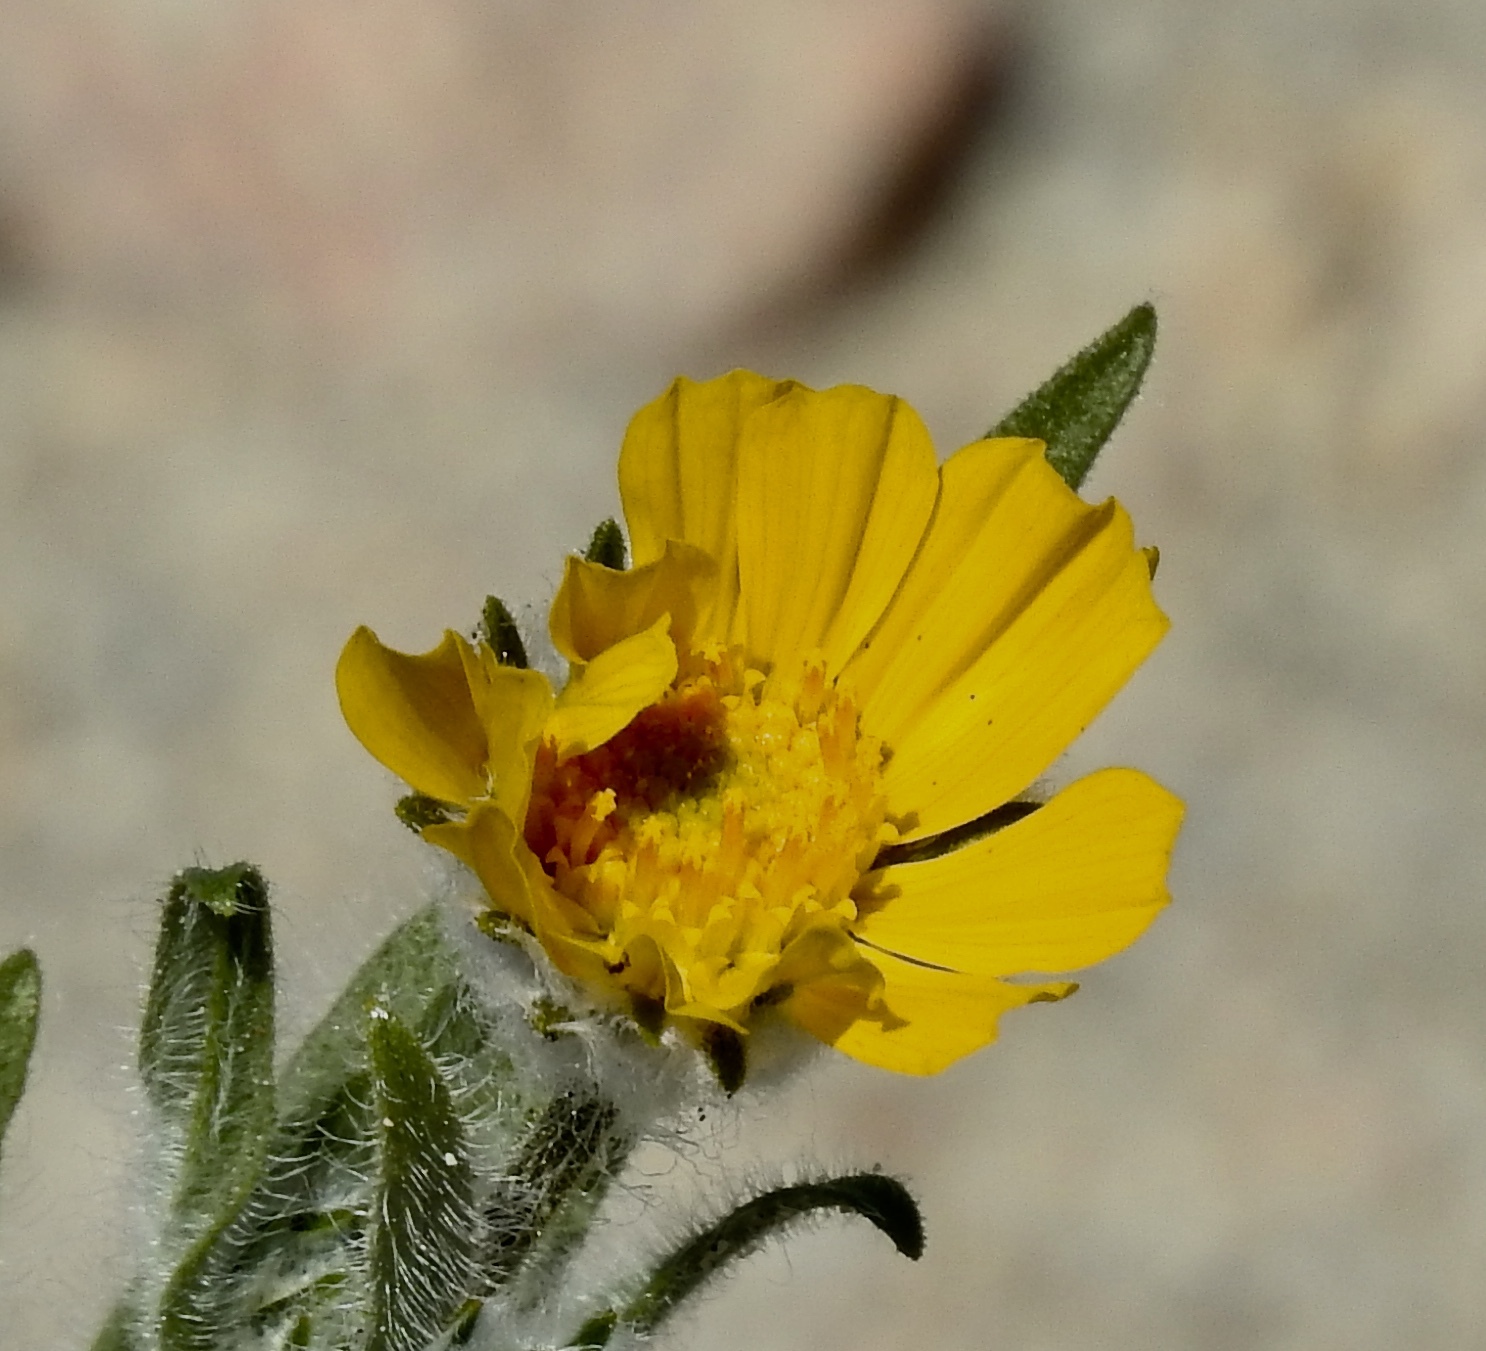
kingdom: Plantae
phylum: Tracheophyta
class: Magnoliopsida
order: Asterales
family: Asteraceae
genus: Geraea
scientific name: Geraea canescens
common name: Desert-gold
